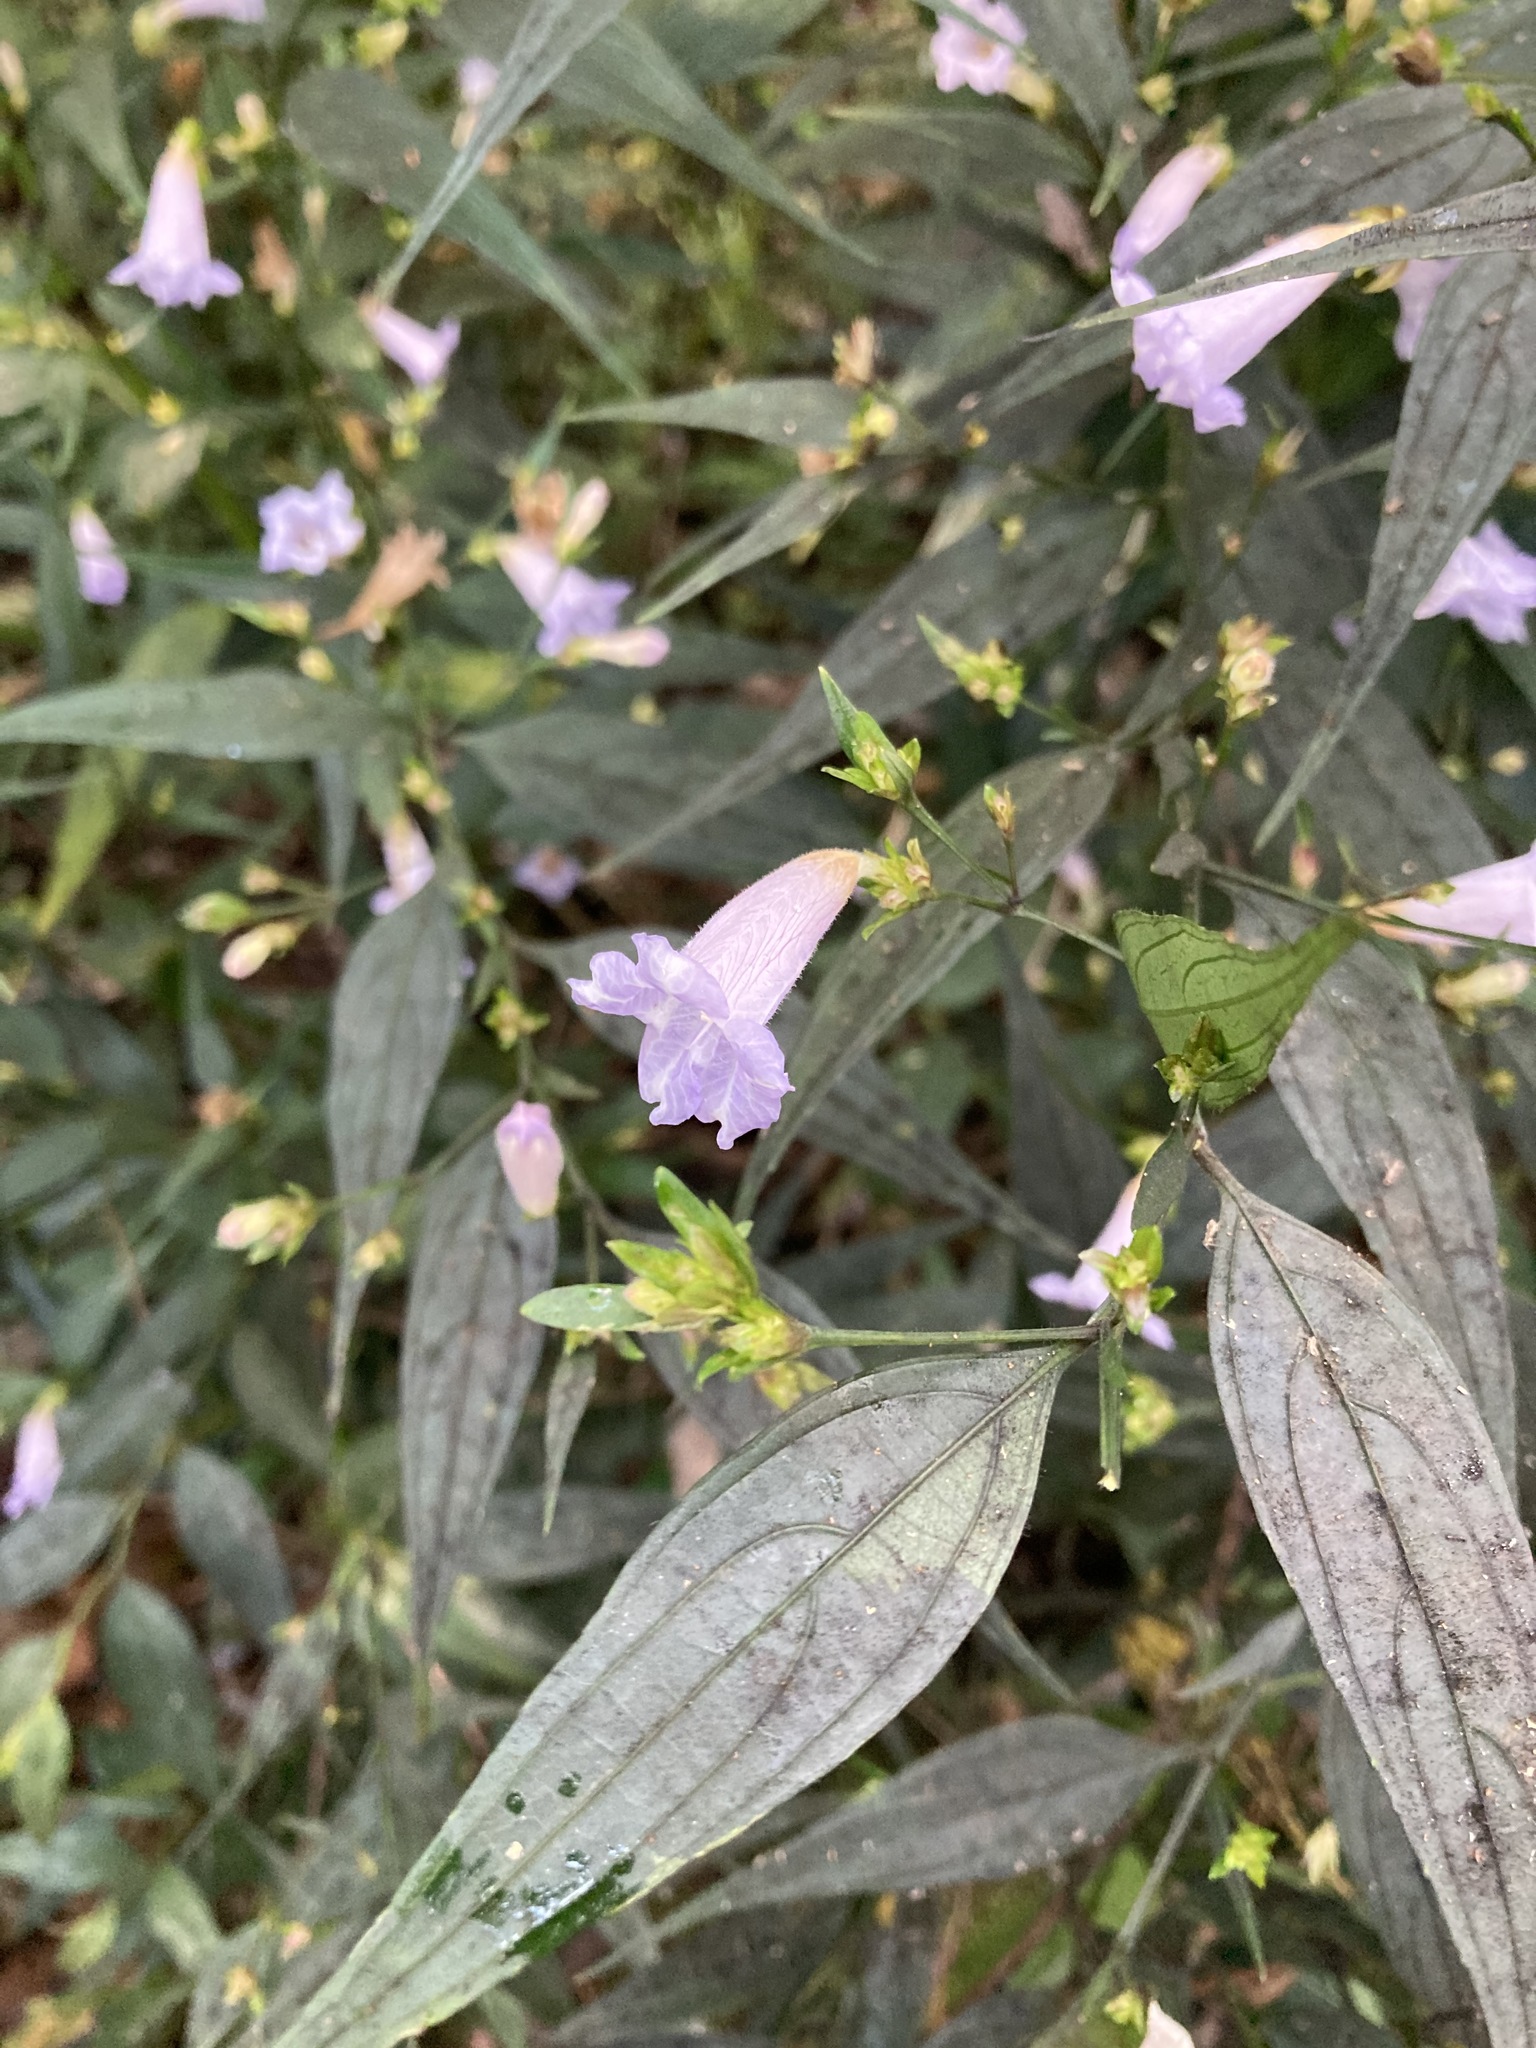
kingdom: Plantae
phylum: Tracheophyta
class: Magnoliopsida
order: Lamiales
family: Acanthaceae
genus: Strobilanthes
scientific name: Strobilanthes anisophylla
